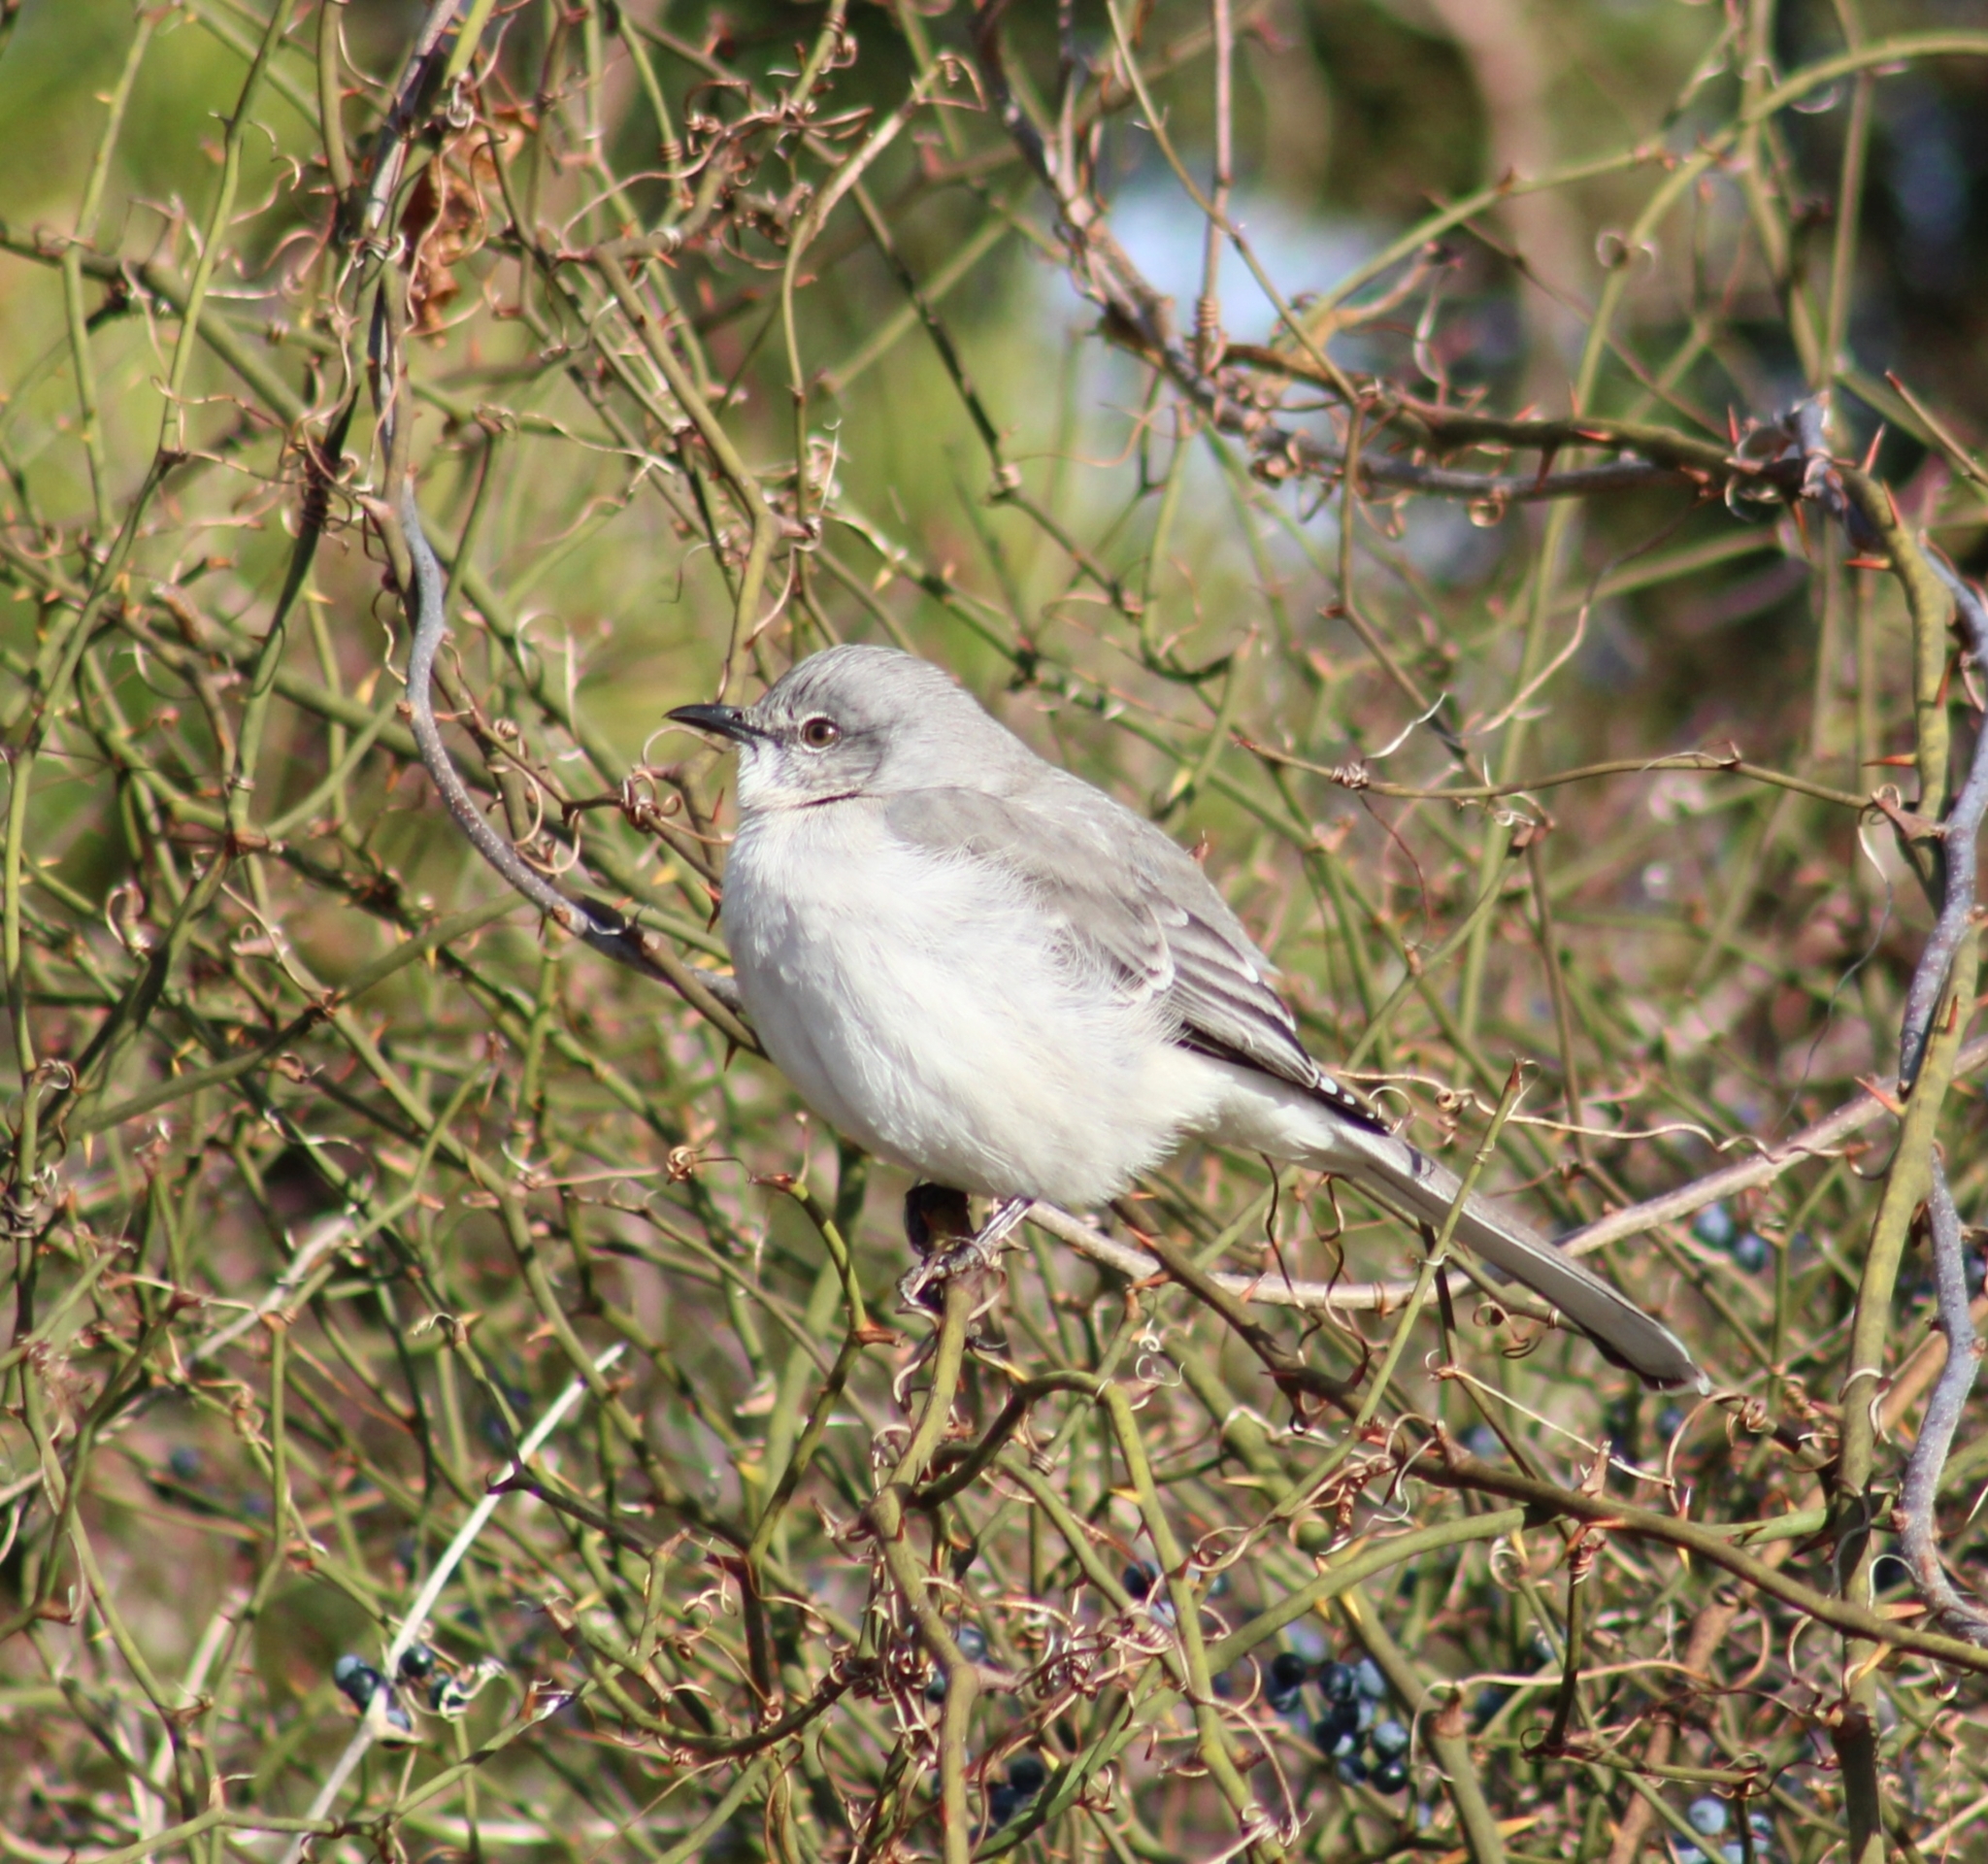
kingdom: Animalia
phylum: Chordata
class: Aves
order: Passeriformes
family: Mimidae
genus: Mimus
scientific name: Mimus polyglottos
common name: Northern mockingbird
